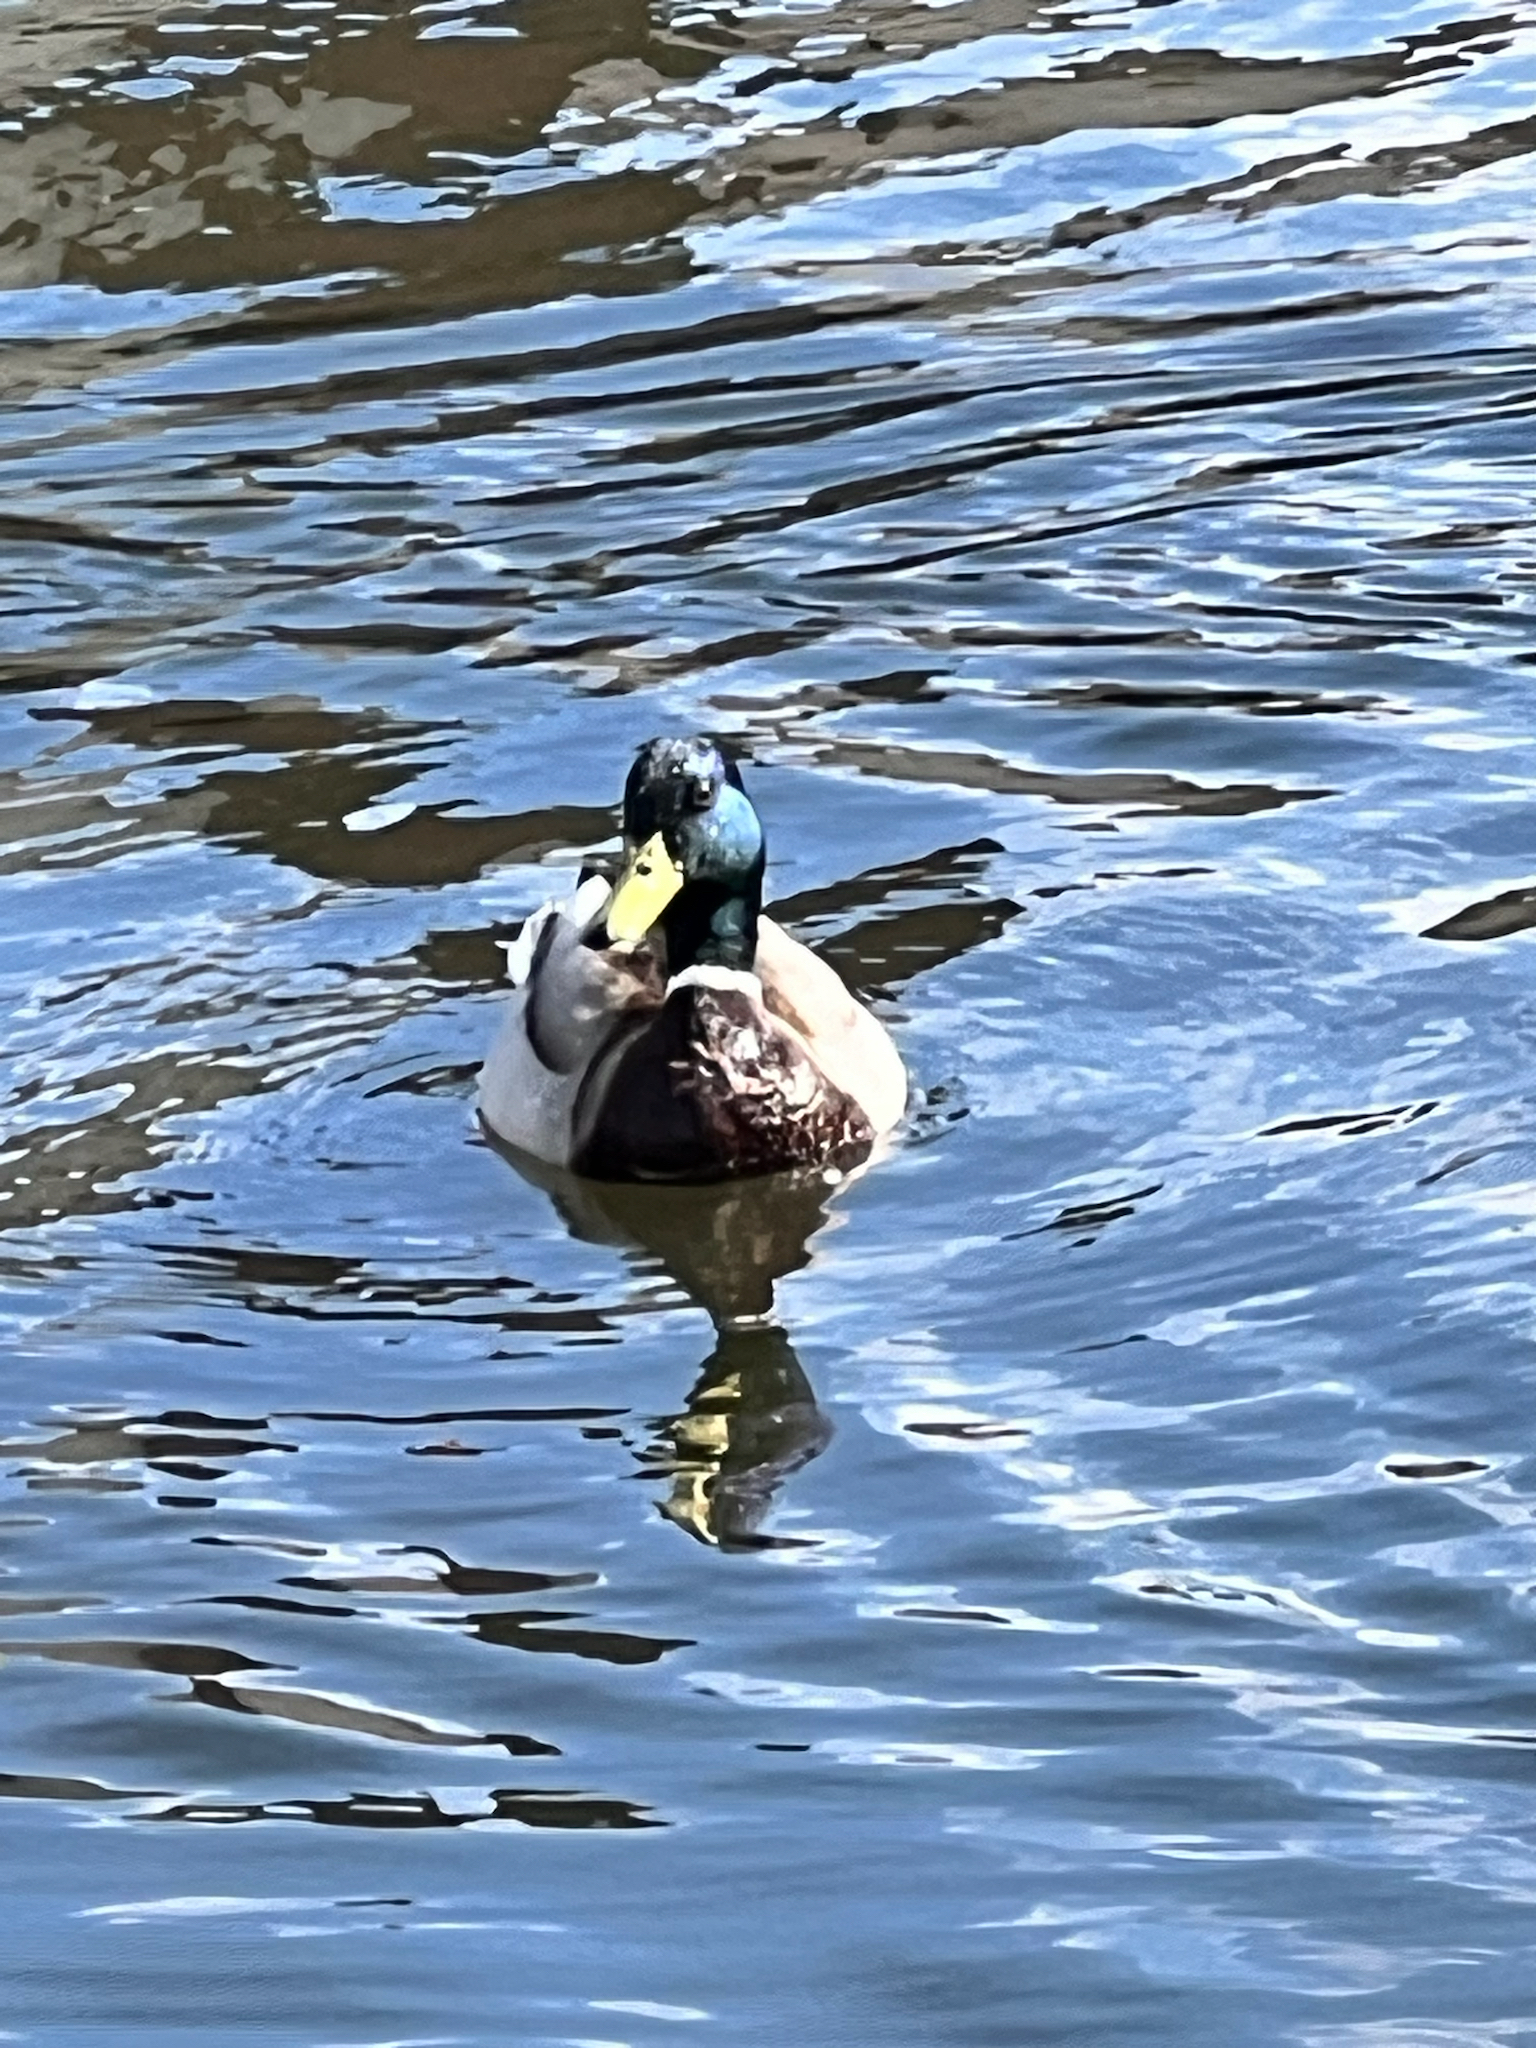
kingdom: Animalia
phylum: Chordata
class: Aves
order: Anseriformes
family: Anatidae
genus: Anas
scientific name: Anas platyrhynchos
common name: Mallard
